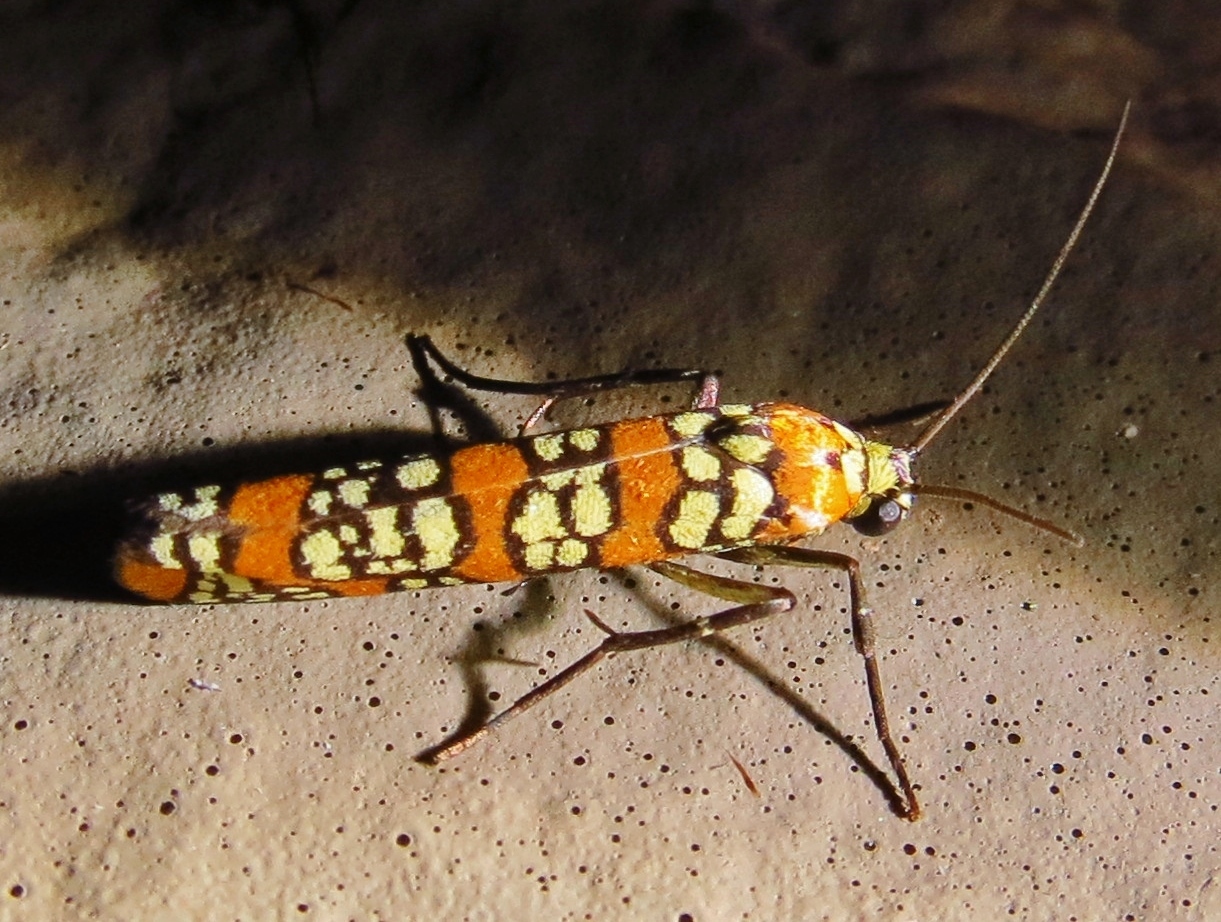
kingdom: Animalia
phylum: Arthropoda
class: Insecta
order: Lepidoptera
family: Attevidae
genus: Atteva
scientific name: Atteva punctella
